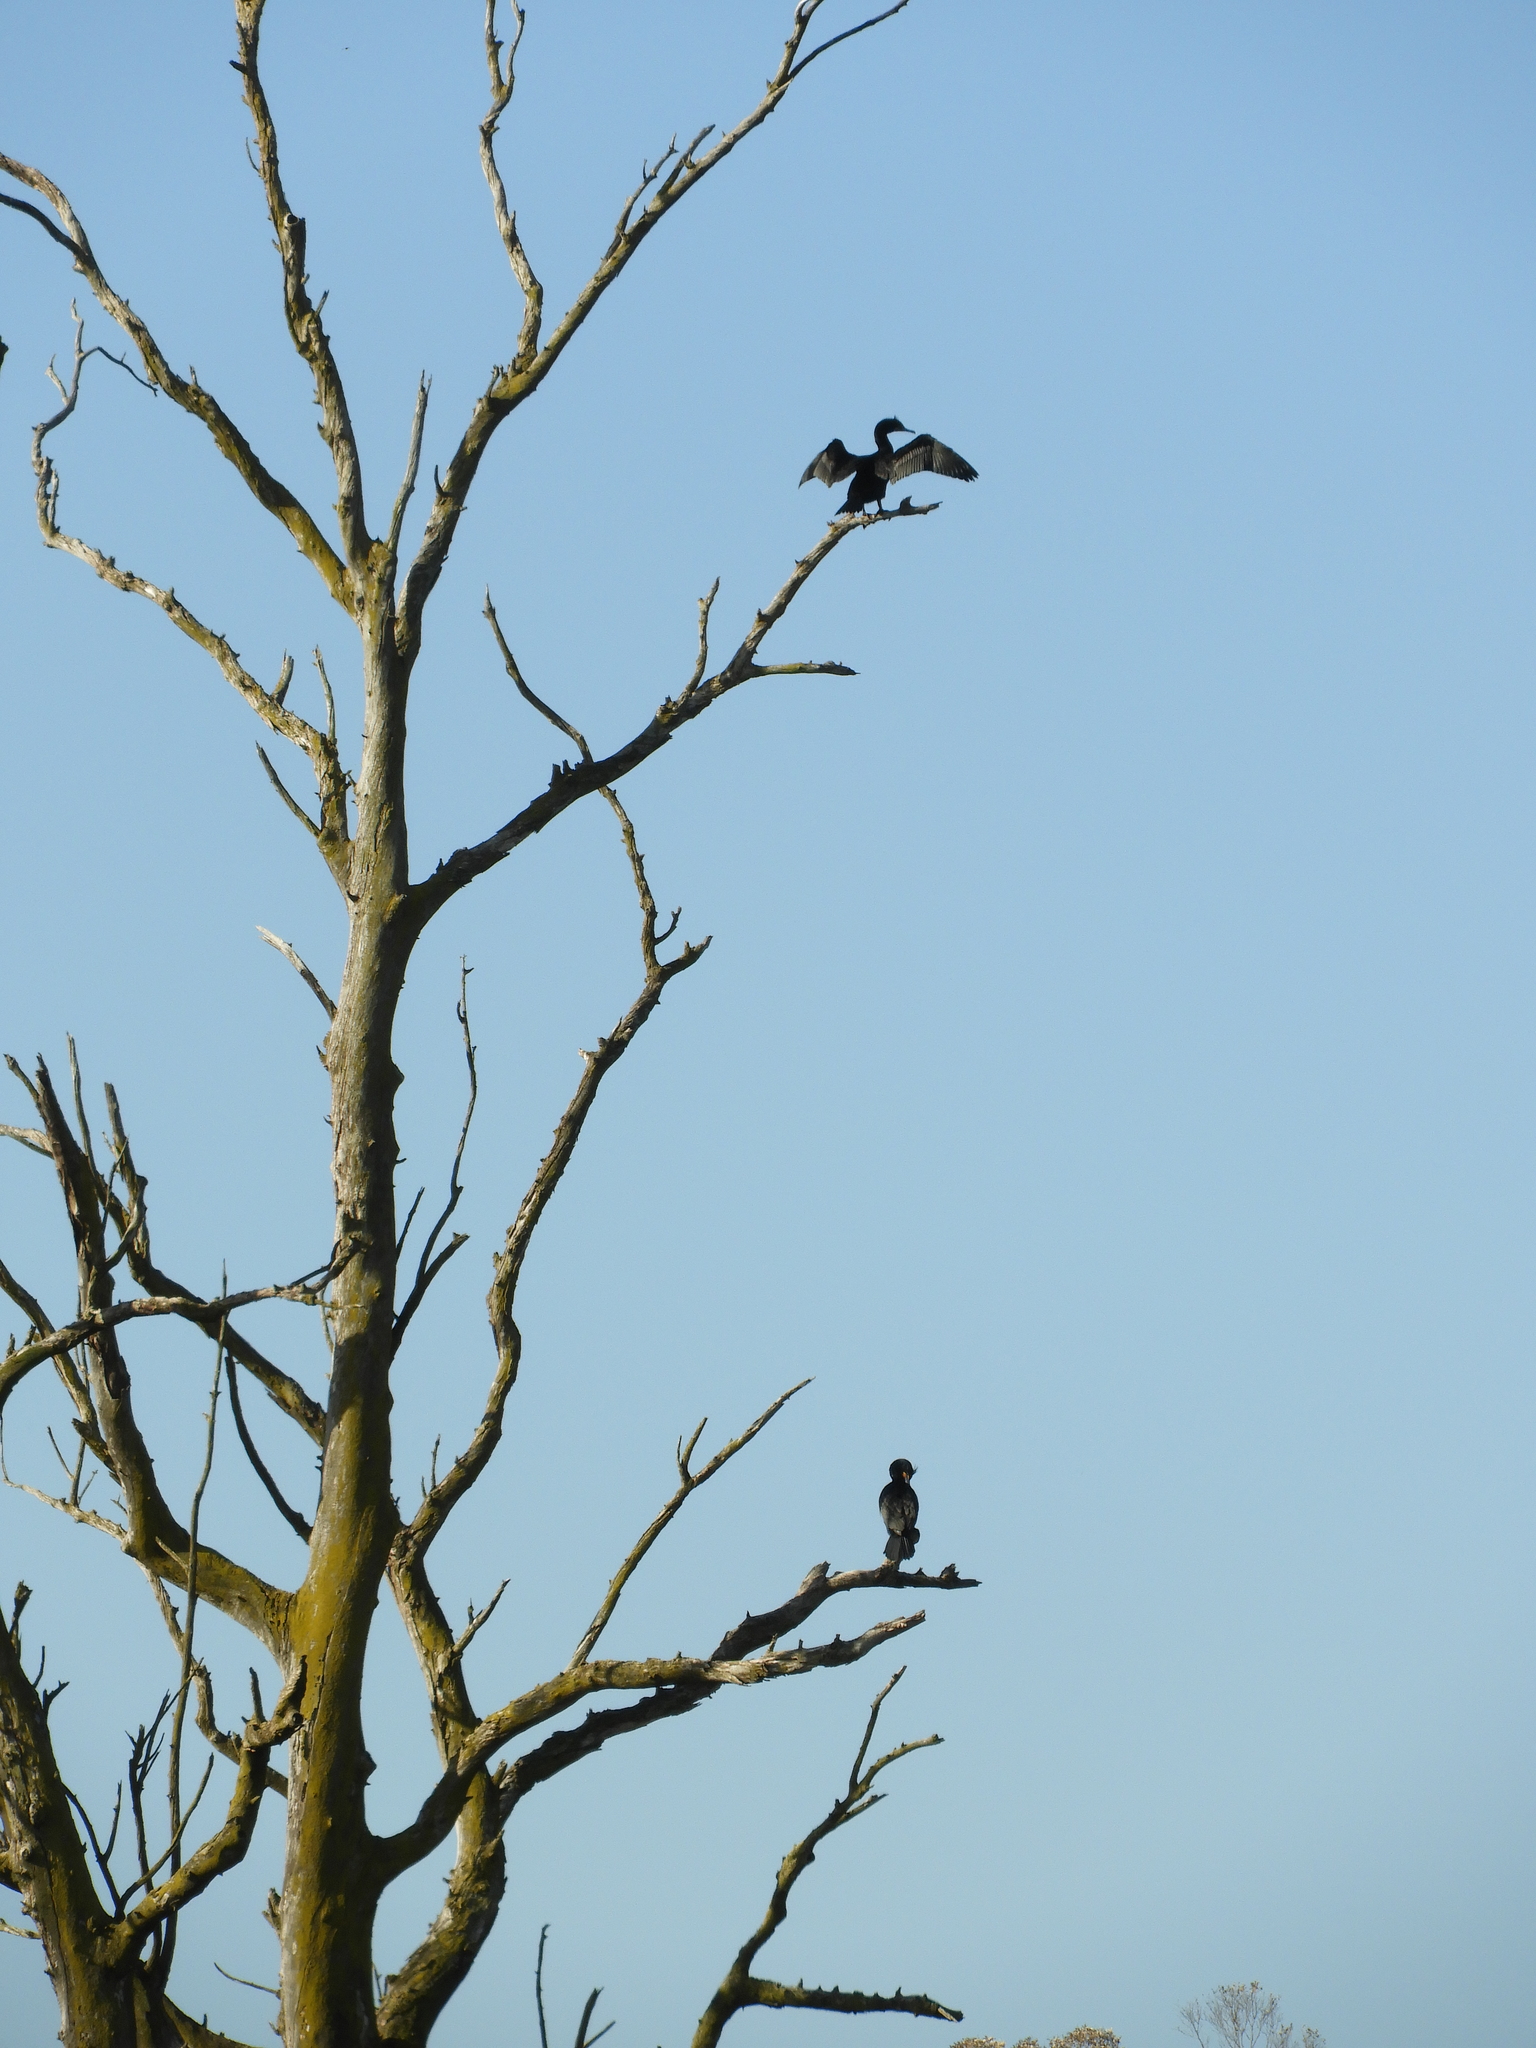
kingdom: Animalia
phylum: Chordata
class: Aves
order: Suliformes
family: Phalacrocoracidae
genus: Phalacrocorax
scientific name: Phalacrocorax auritus
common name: Double-crested cormorant
